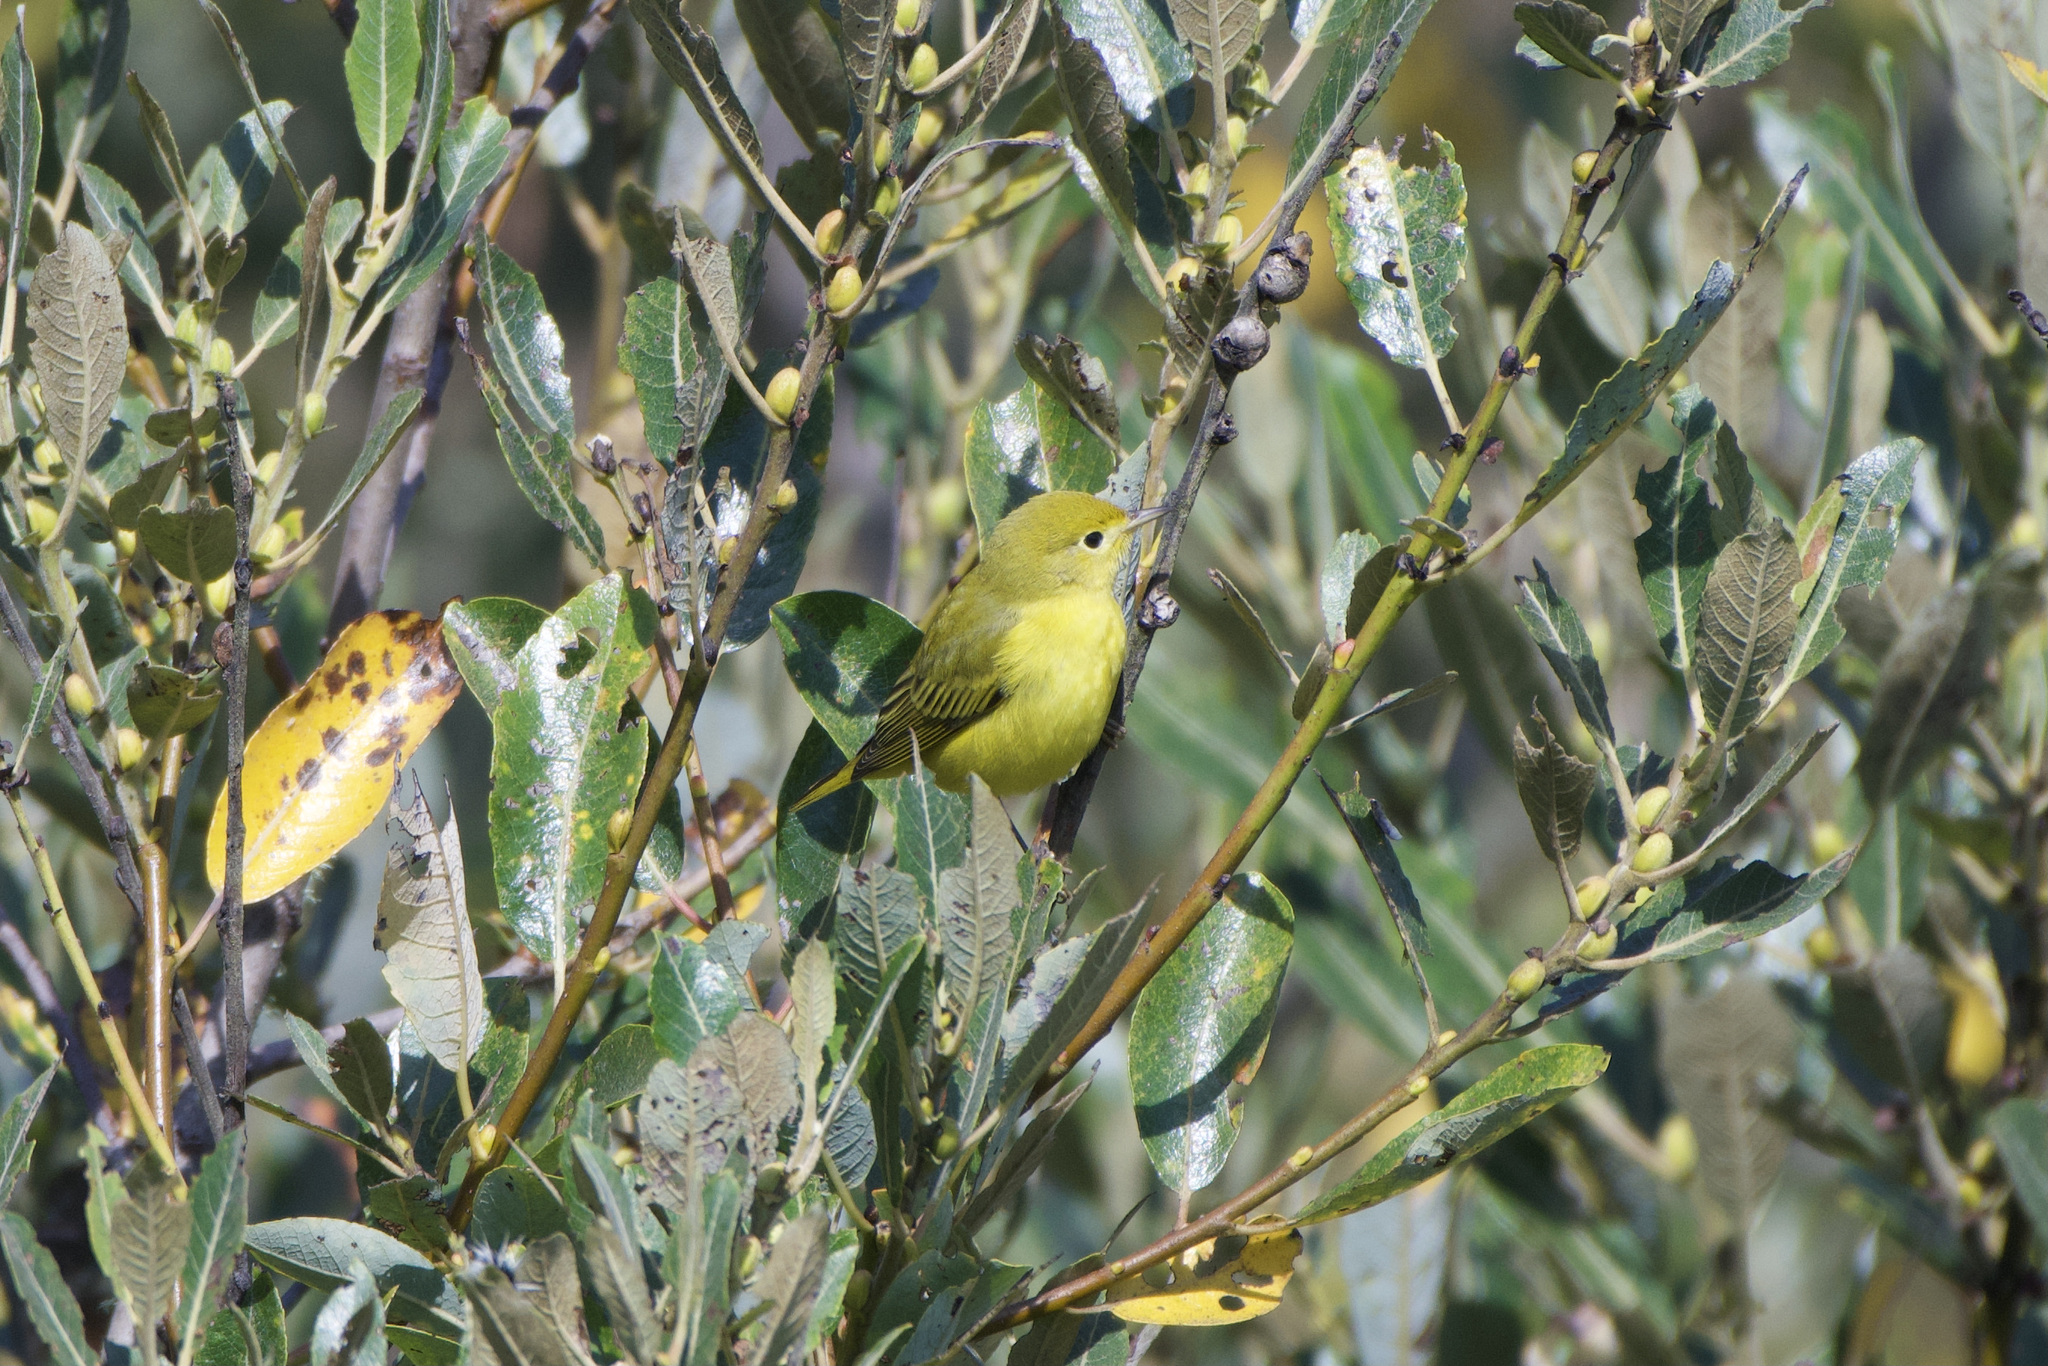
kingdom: Animalia
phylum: Chordata
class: Aves
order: Passeriformes
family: Parulidae
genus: Setophaga
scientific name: Setophaga petechia
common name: Yellow warbler
